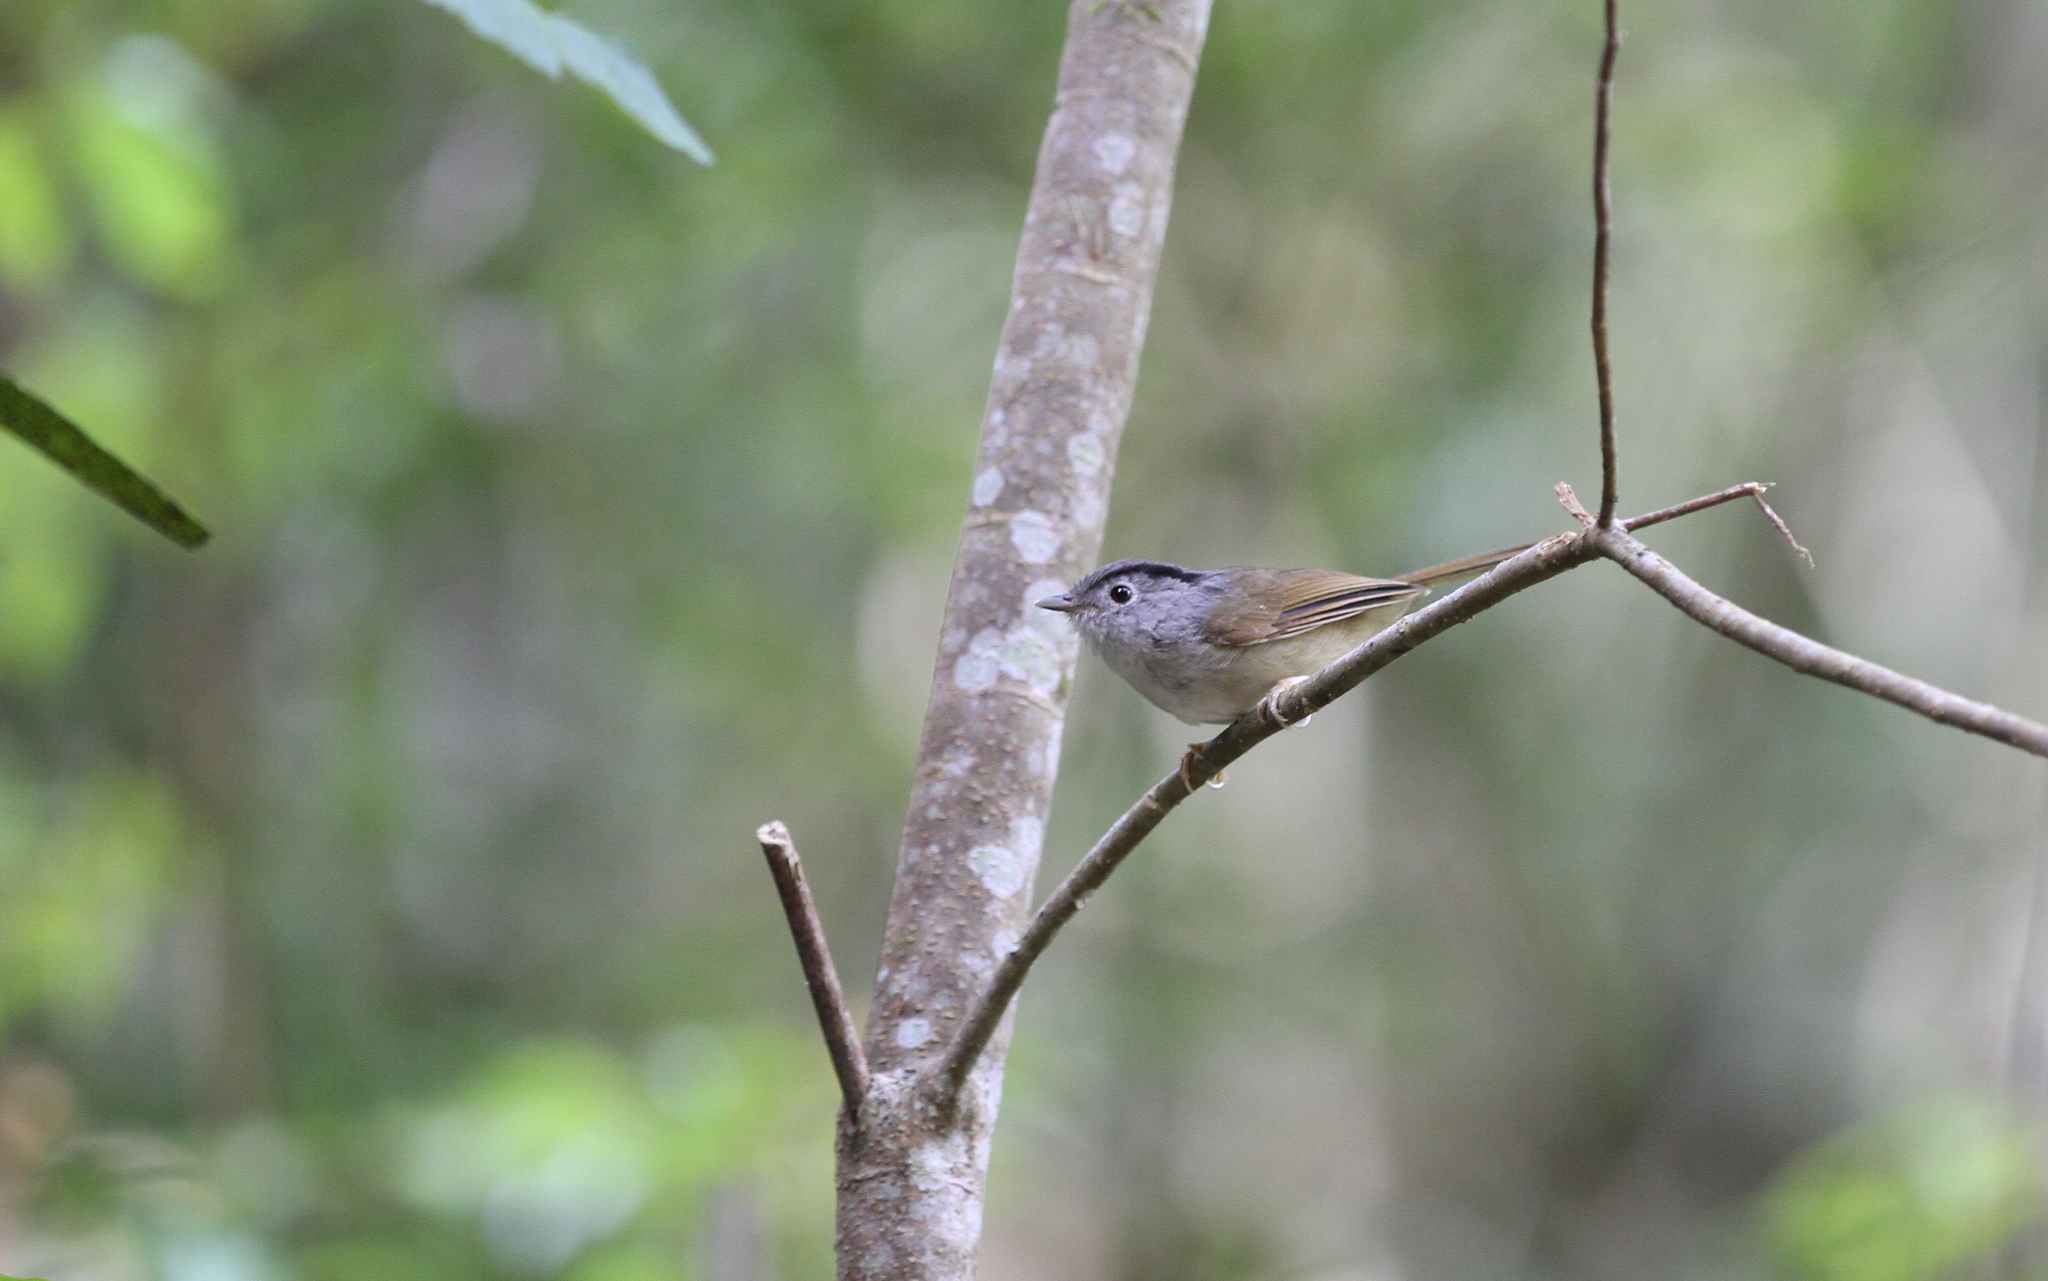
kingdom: Animalia
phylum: Chordata
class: Aves
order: Passeriformes
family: Pellorneidae
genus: Alcippe
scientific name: Alcippe peracensis
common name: Mountain fulvetta
